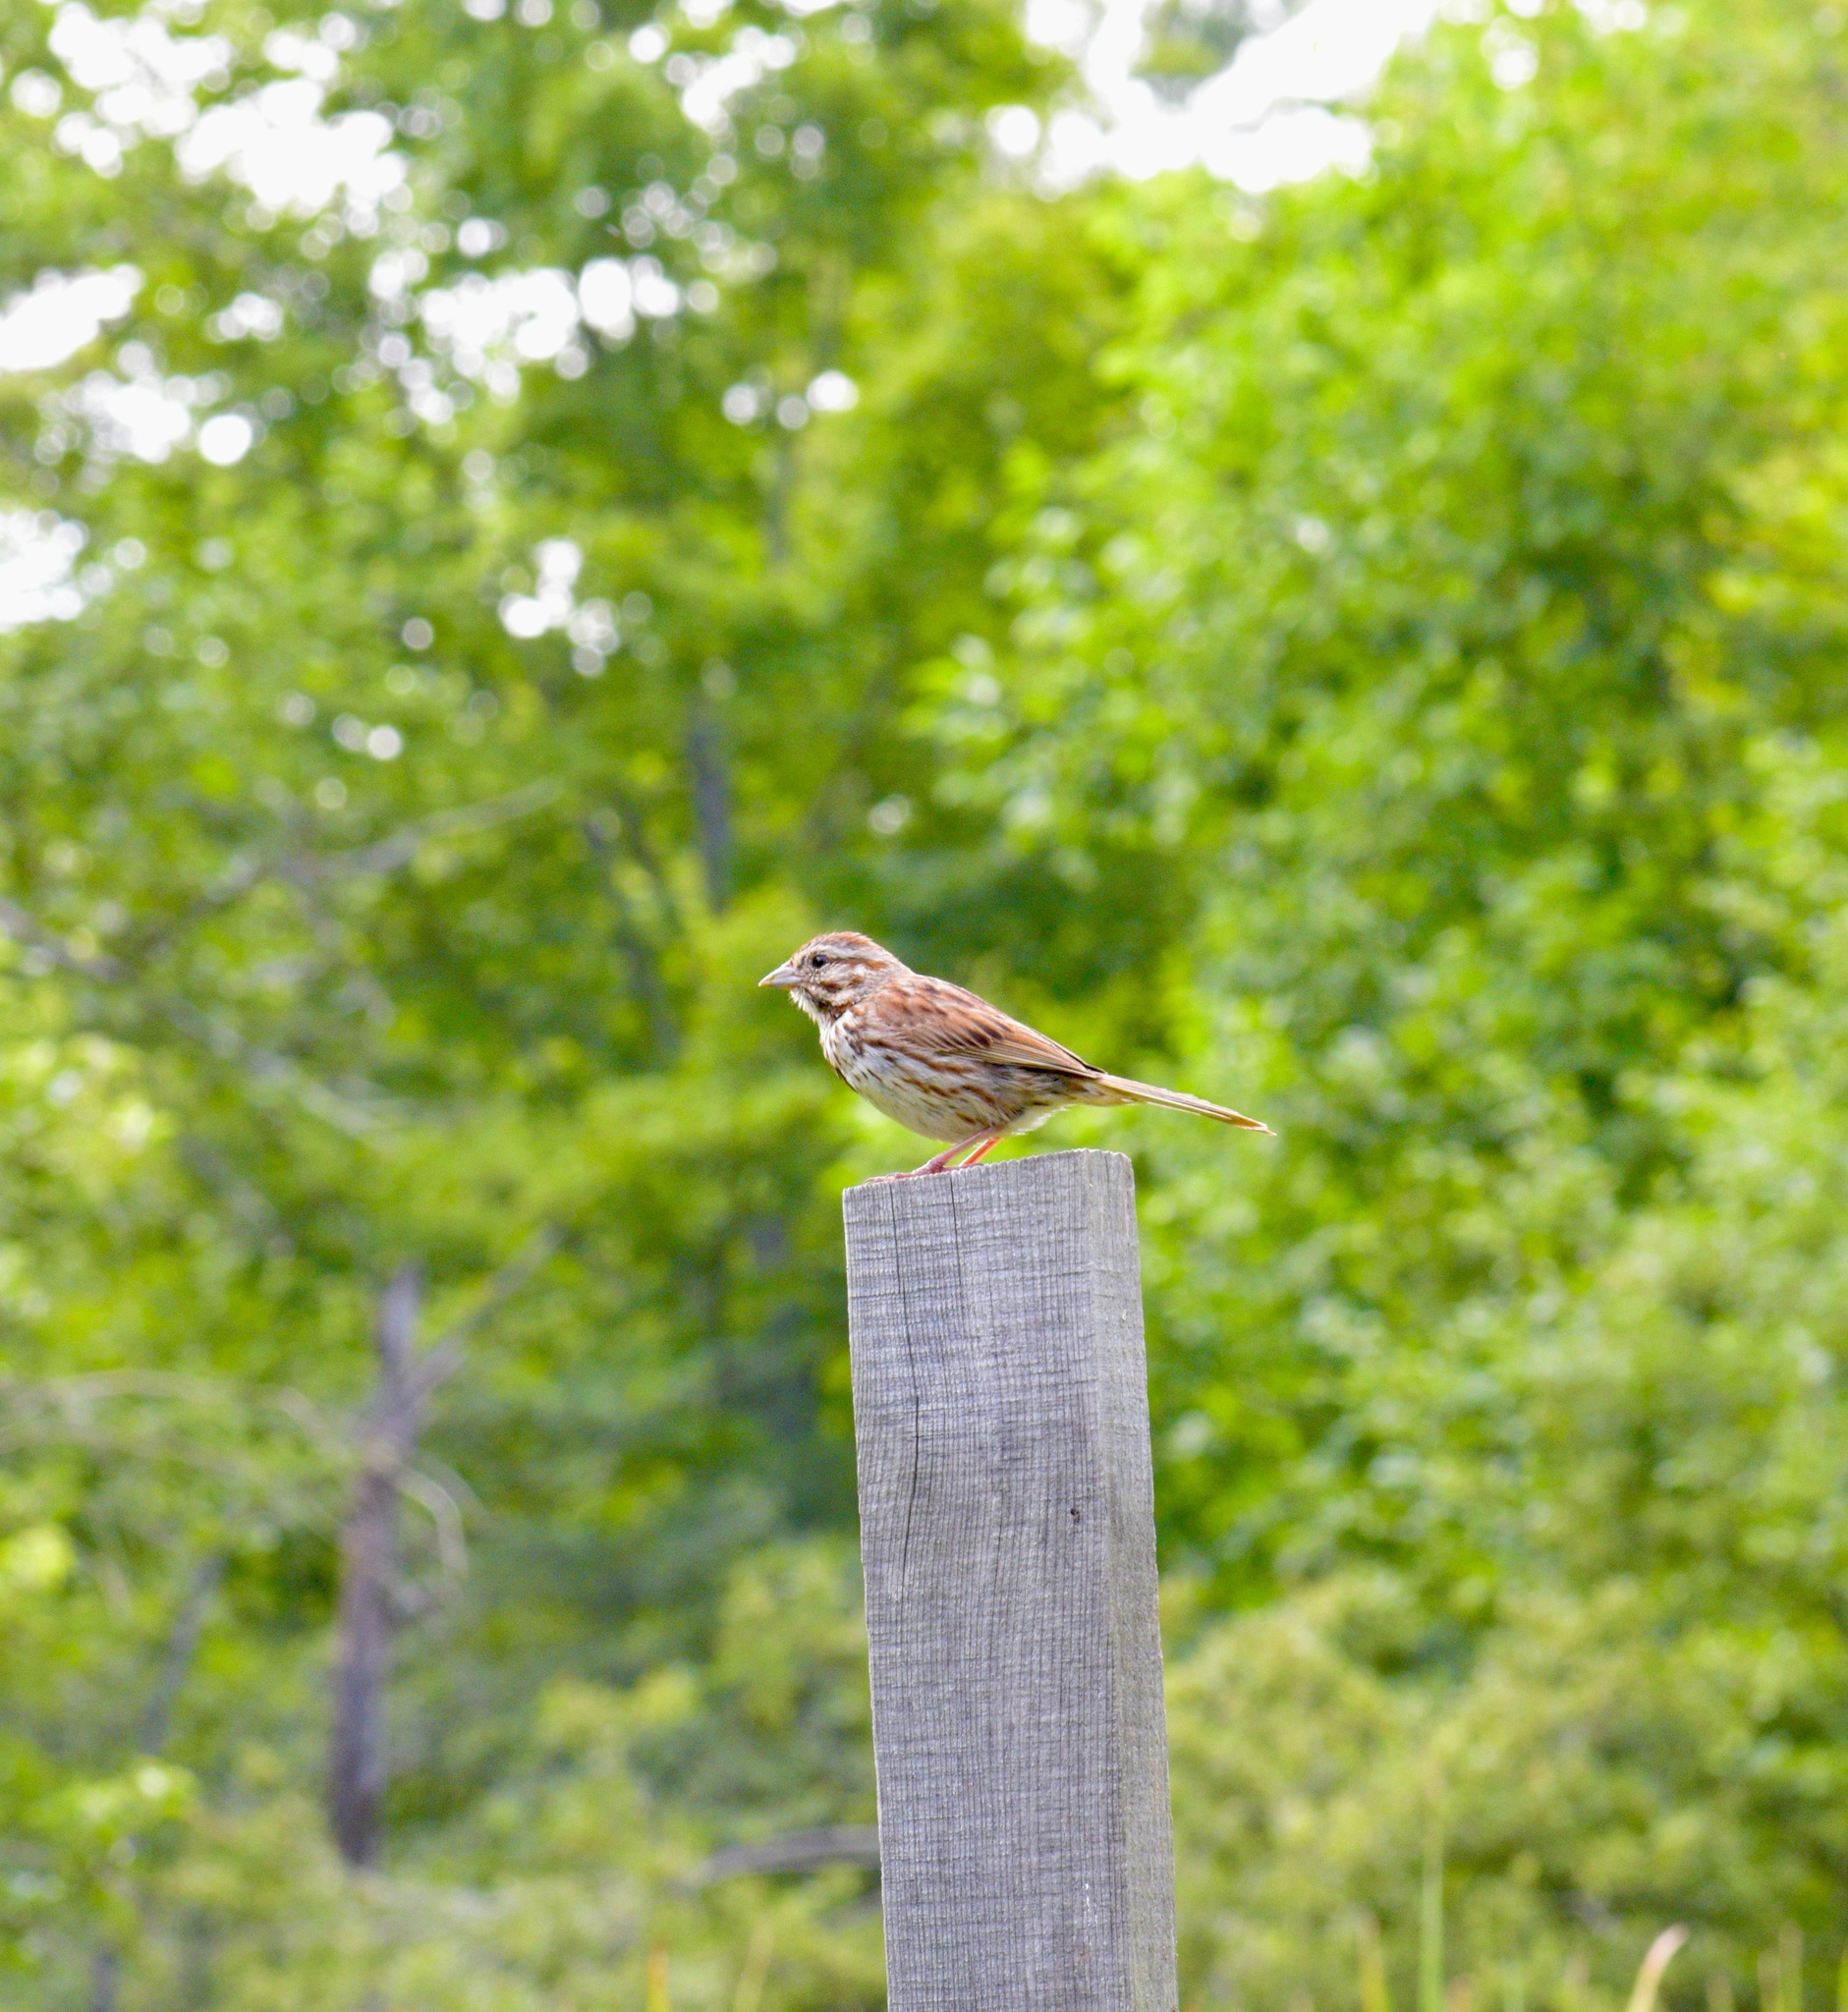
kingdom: Animalia
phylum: Chordata
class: Aves
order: Passeriformes
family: Passerellidae
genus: Melospiza
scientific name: Melospiza melodia
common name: Song sparrow
